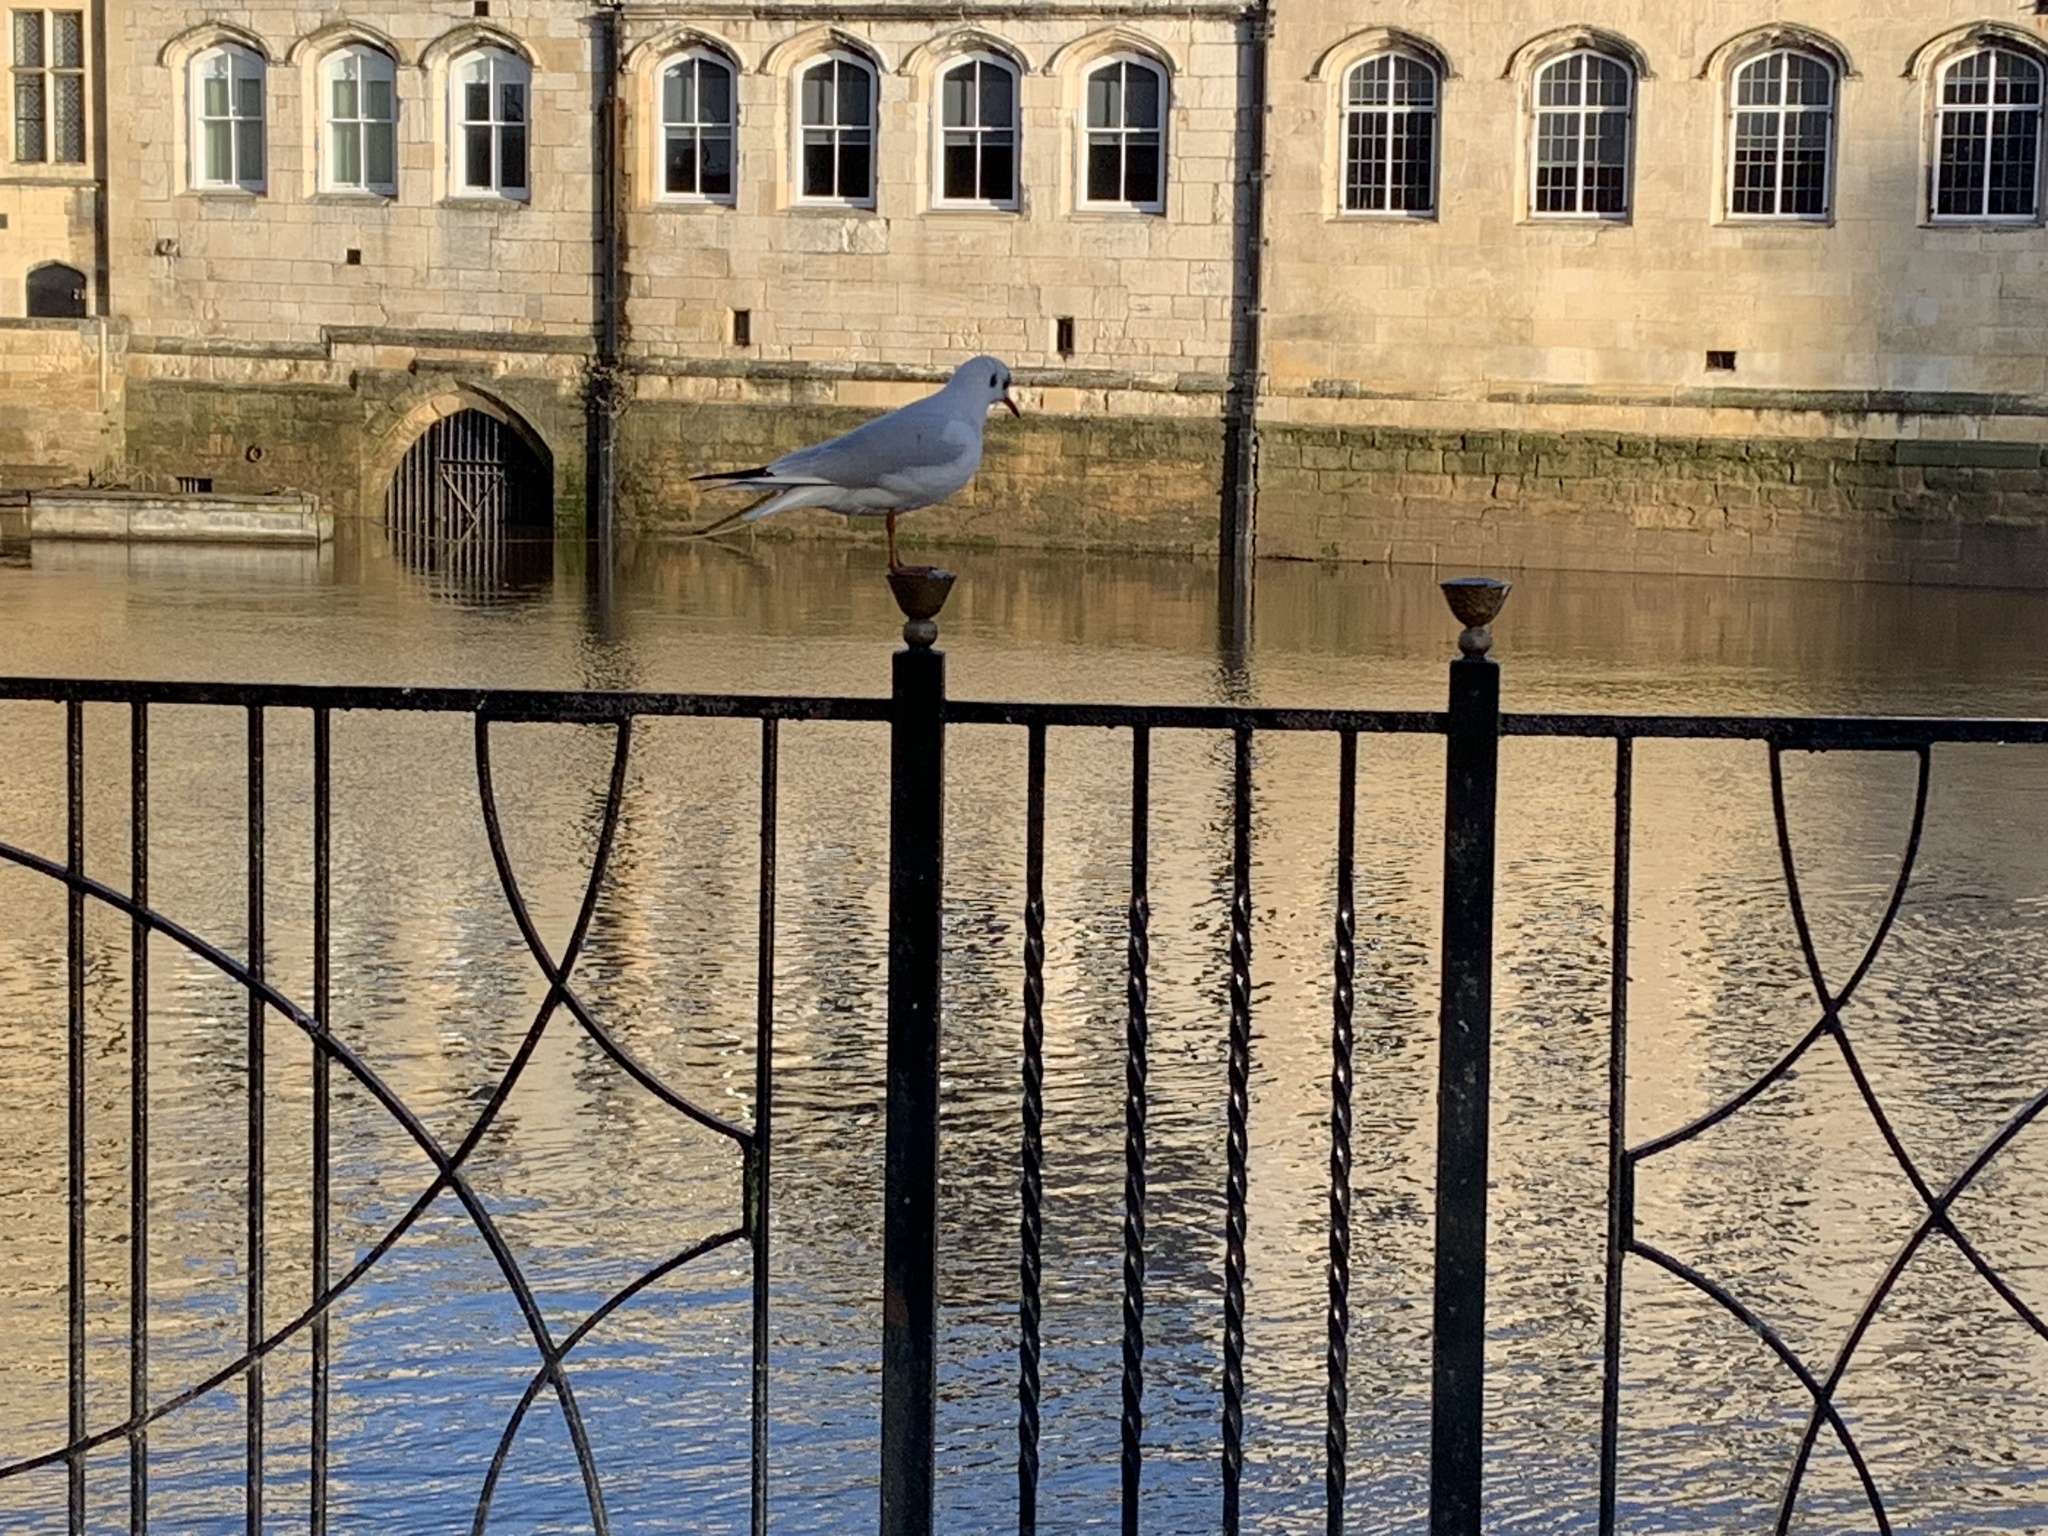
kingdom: Animalia
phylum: Chordata
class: Aves
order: Charadriiformes
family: Laridae
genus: Chroicocephalus
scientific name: Chroicocephalus ridibundus
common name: Black-headed gull
